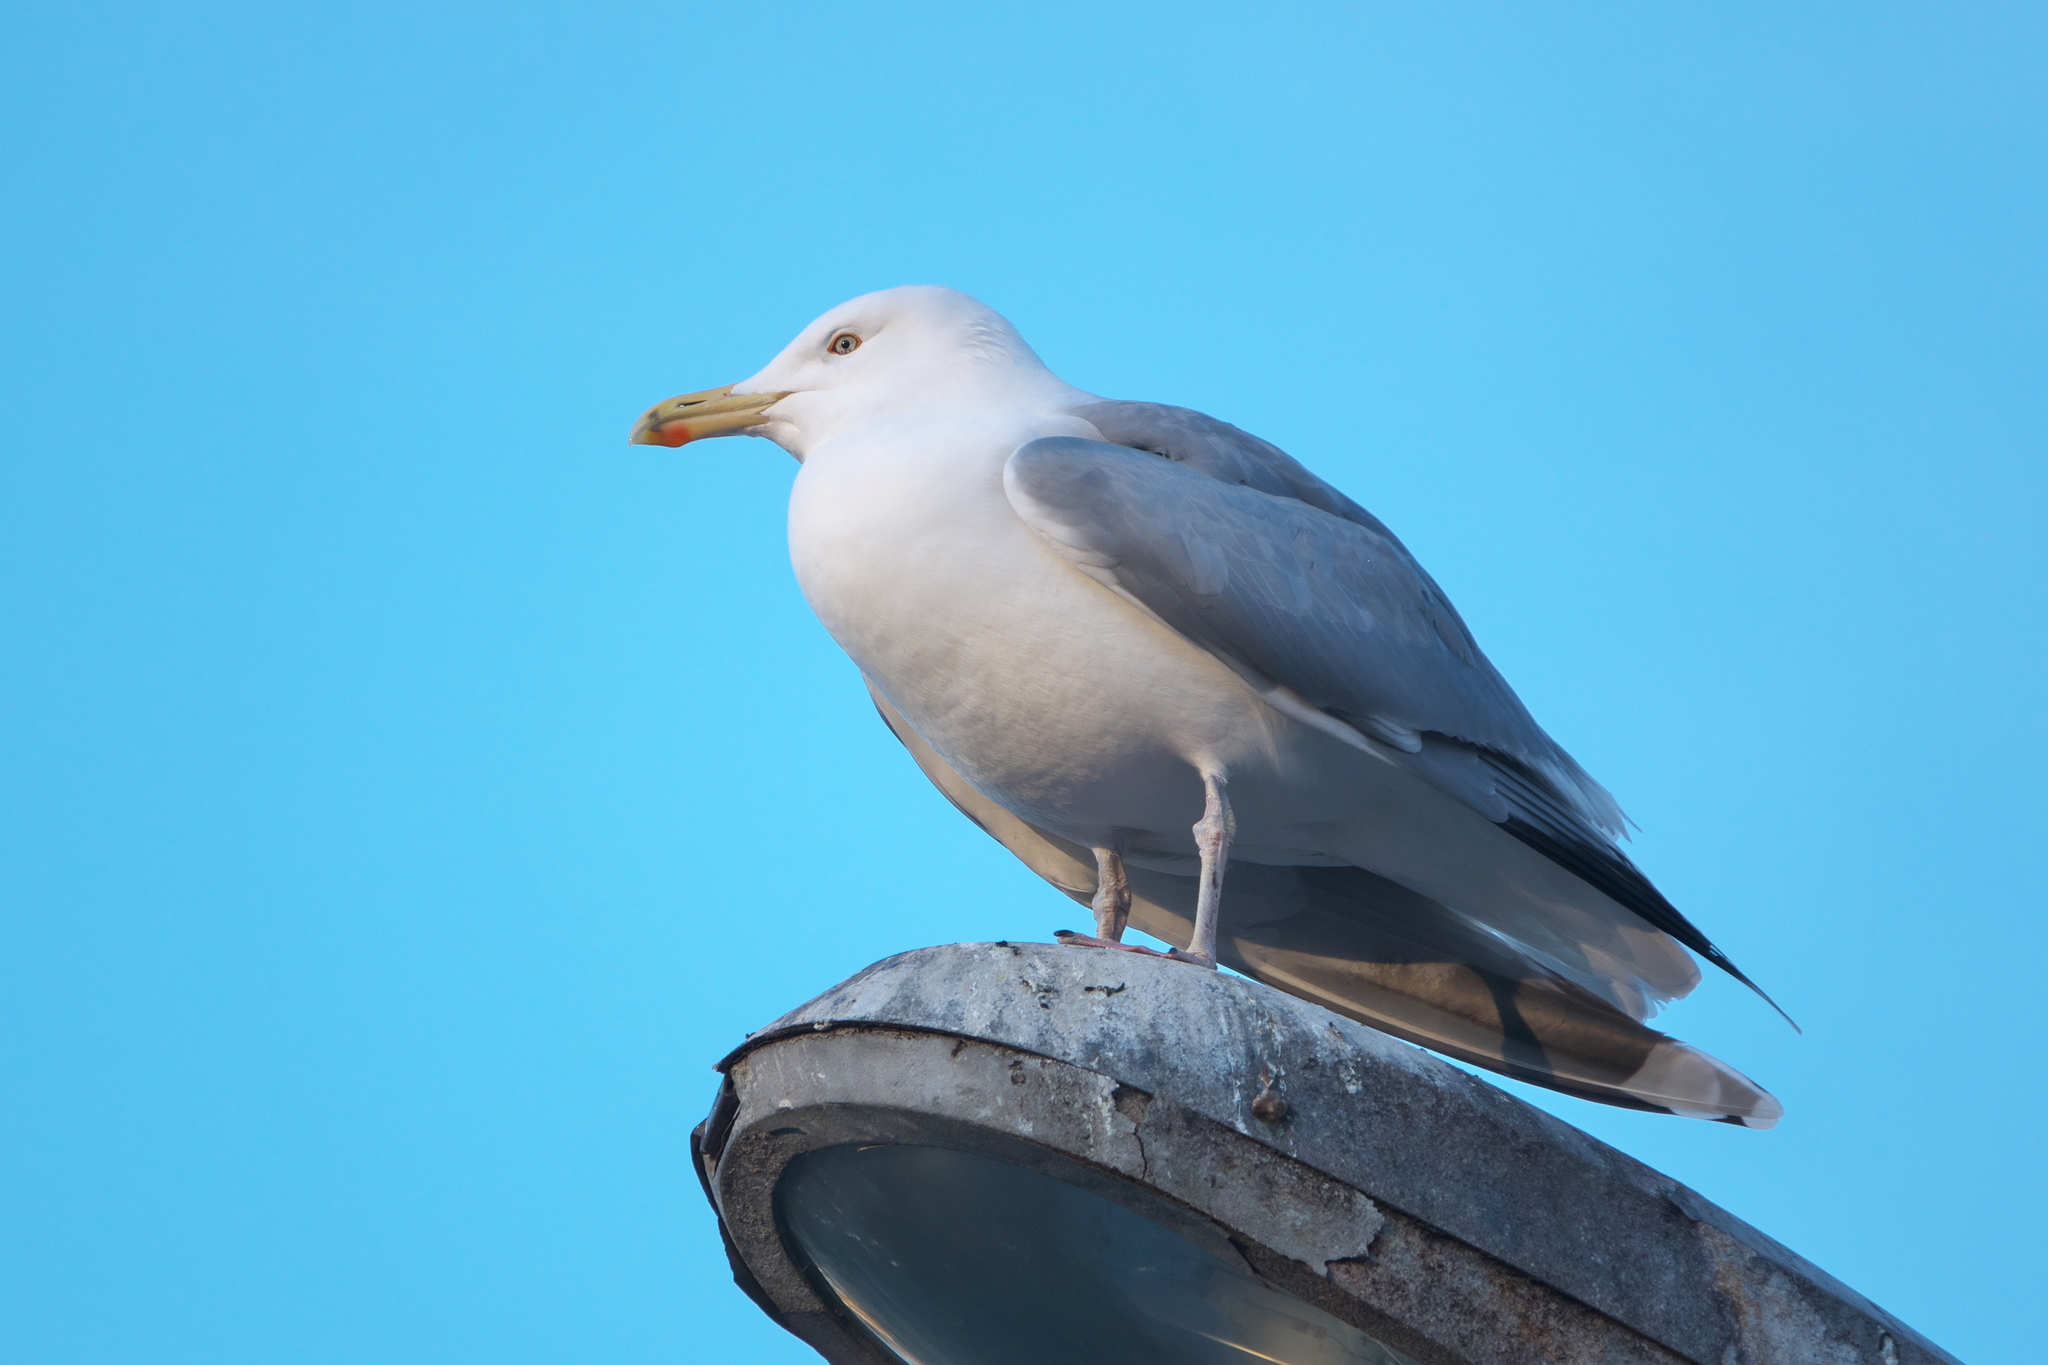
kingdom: Animalia
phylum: Chordata
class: Aves
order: Charadriiformes
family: Laridae
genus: Larus
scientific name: Larus argentatus
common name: Herring gull
